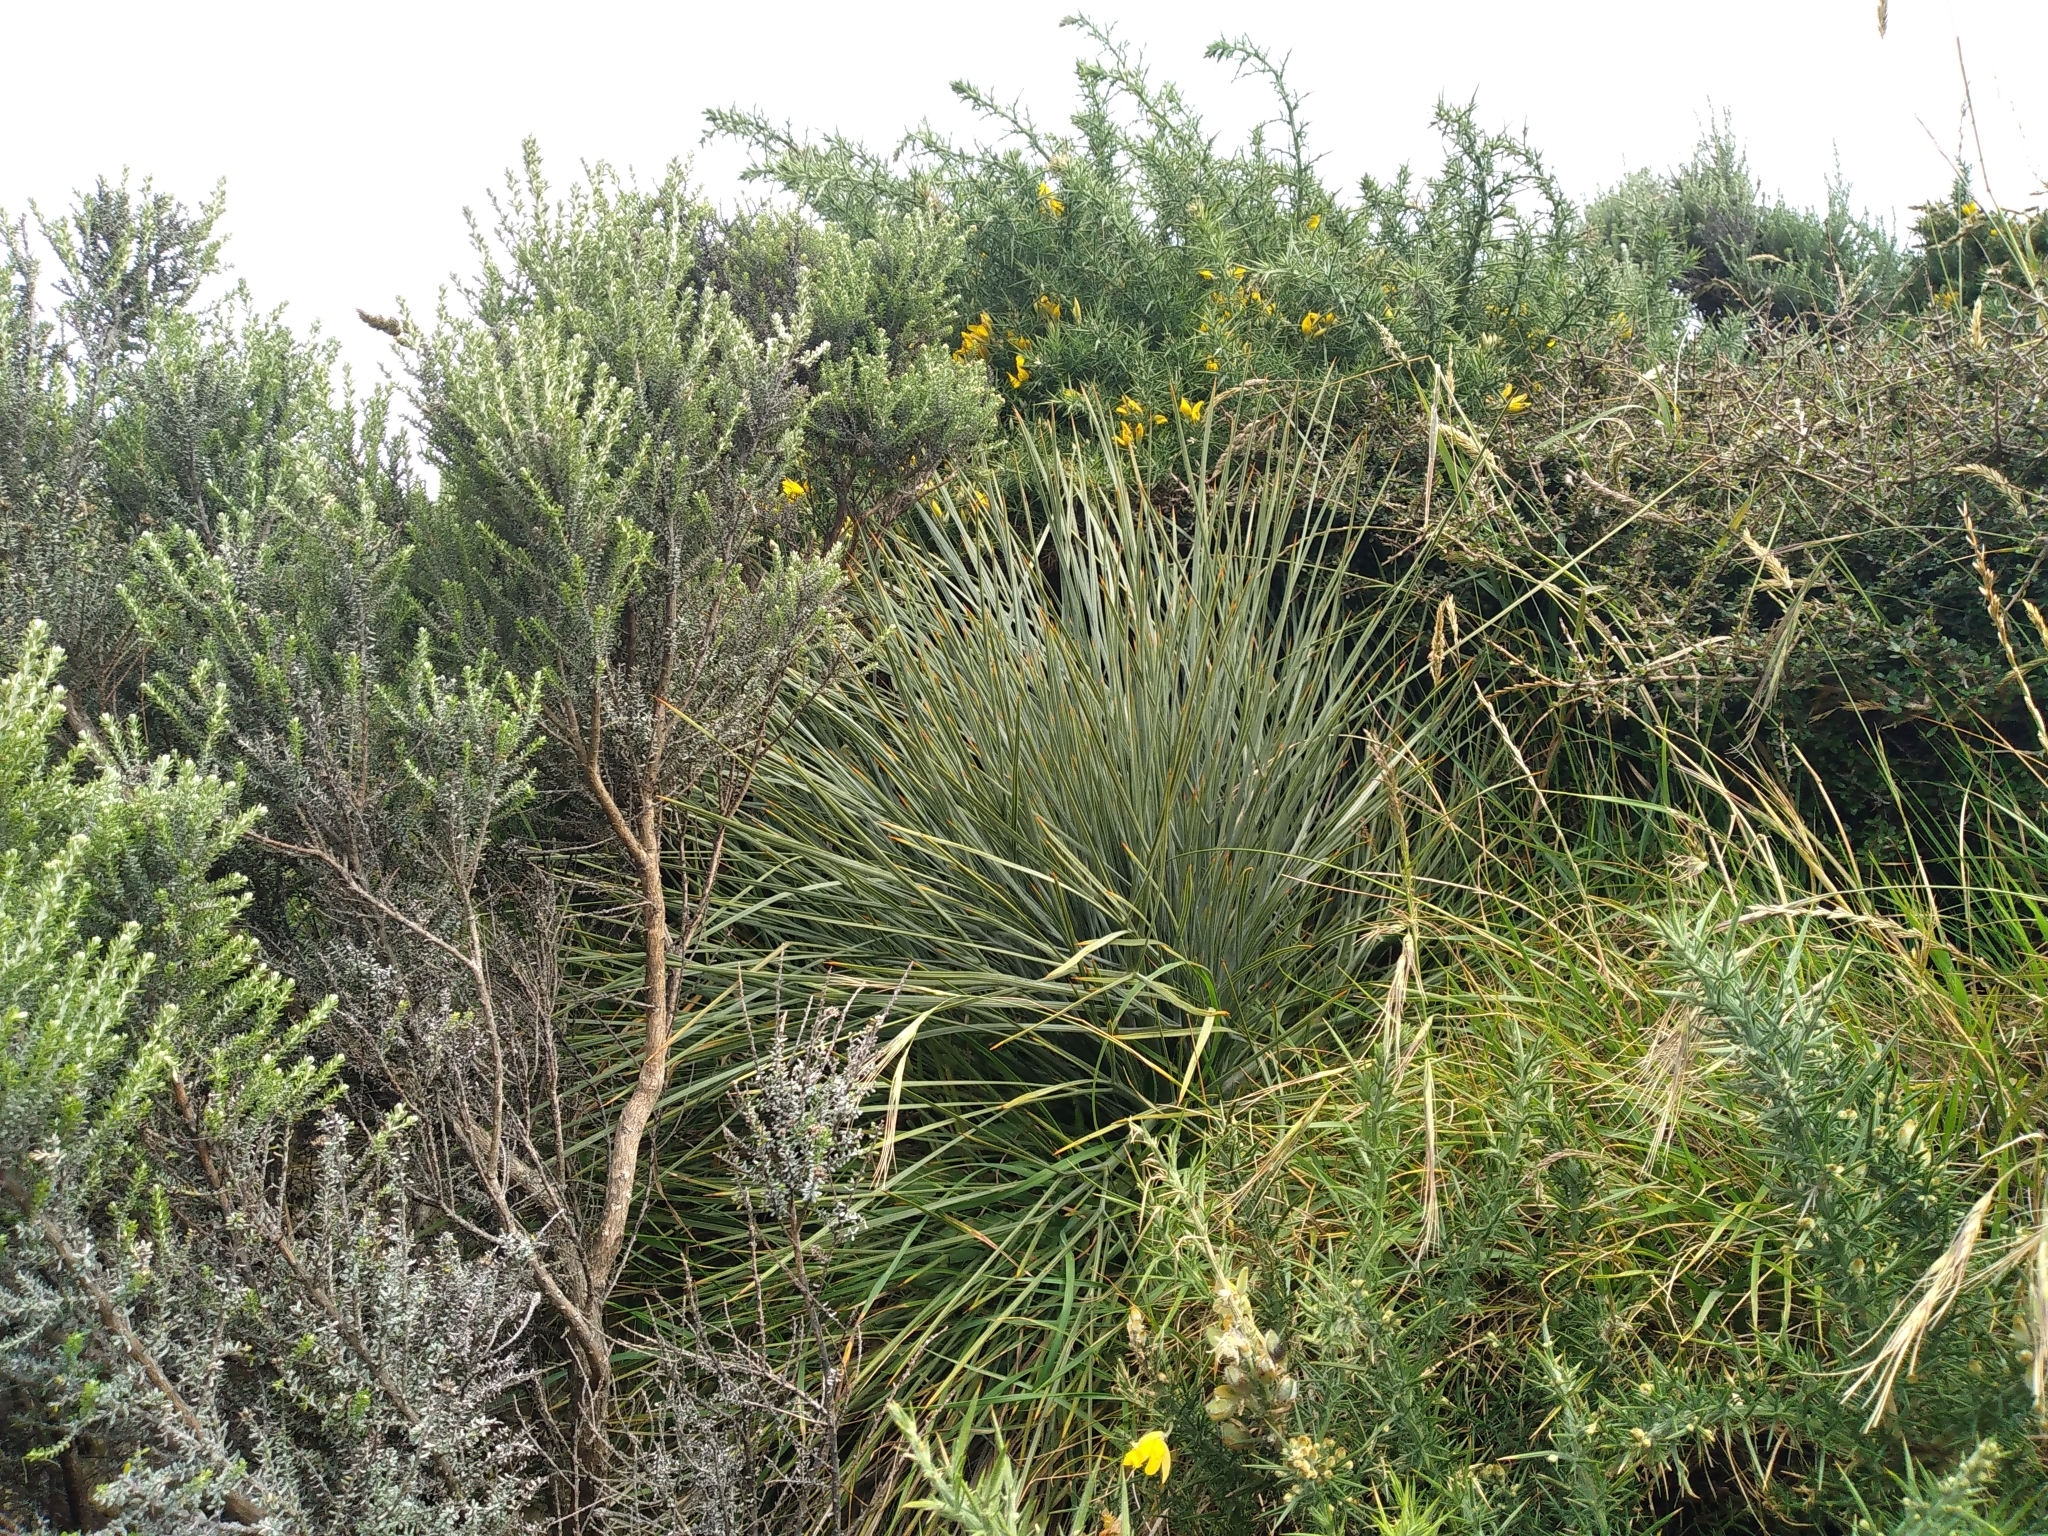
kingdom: Plantae
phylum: Tracheophyta
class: Magnoliopsida
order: Apiales
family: Apiaceae
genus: Aciphylla
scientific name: Aciphylla squarrosa
